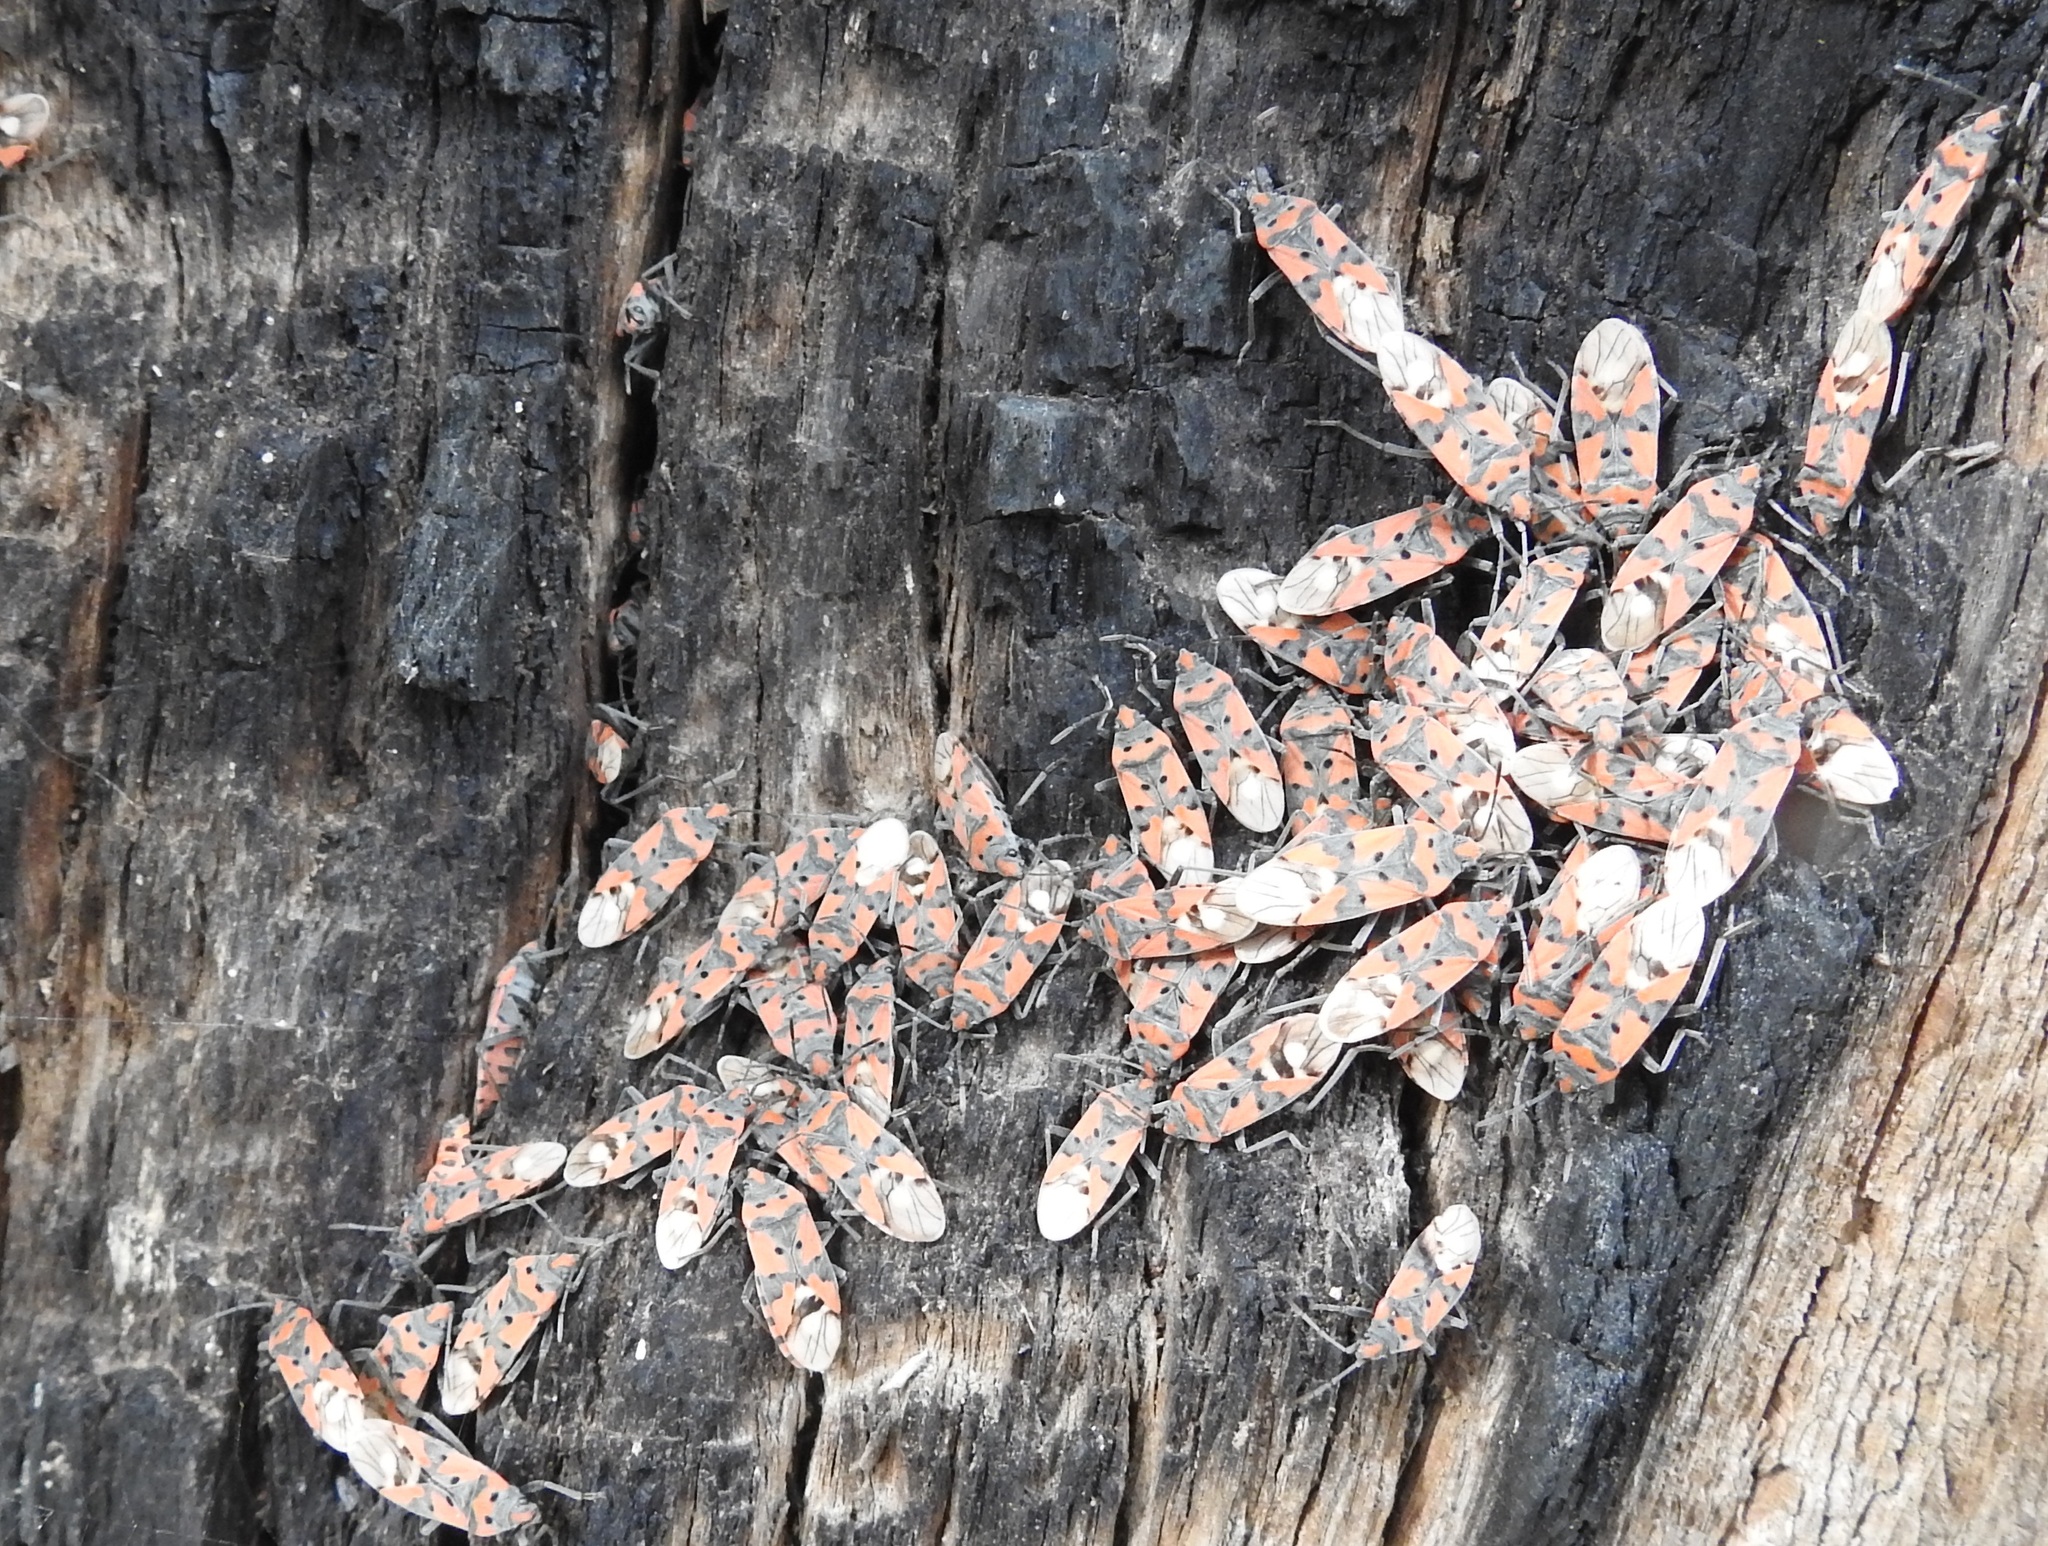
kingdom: Animalia
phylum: Arthropoda
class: Insecta
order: Hemiptera
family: Lygaeidae
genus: Lygaeus
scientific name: Lygaeus equestris
